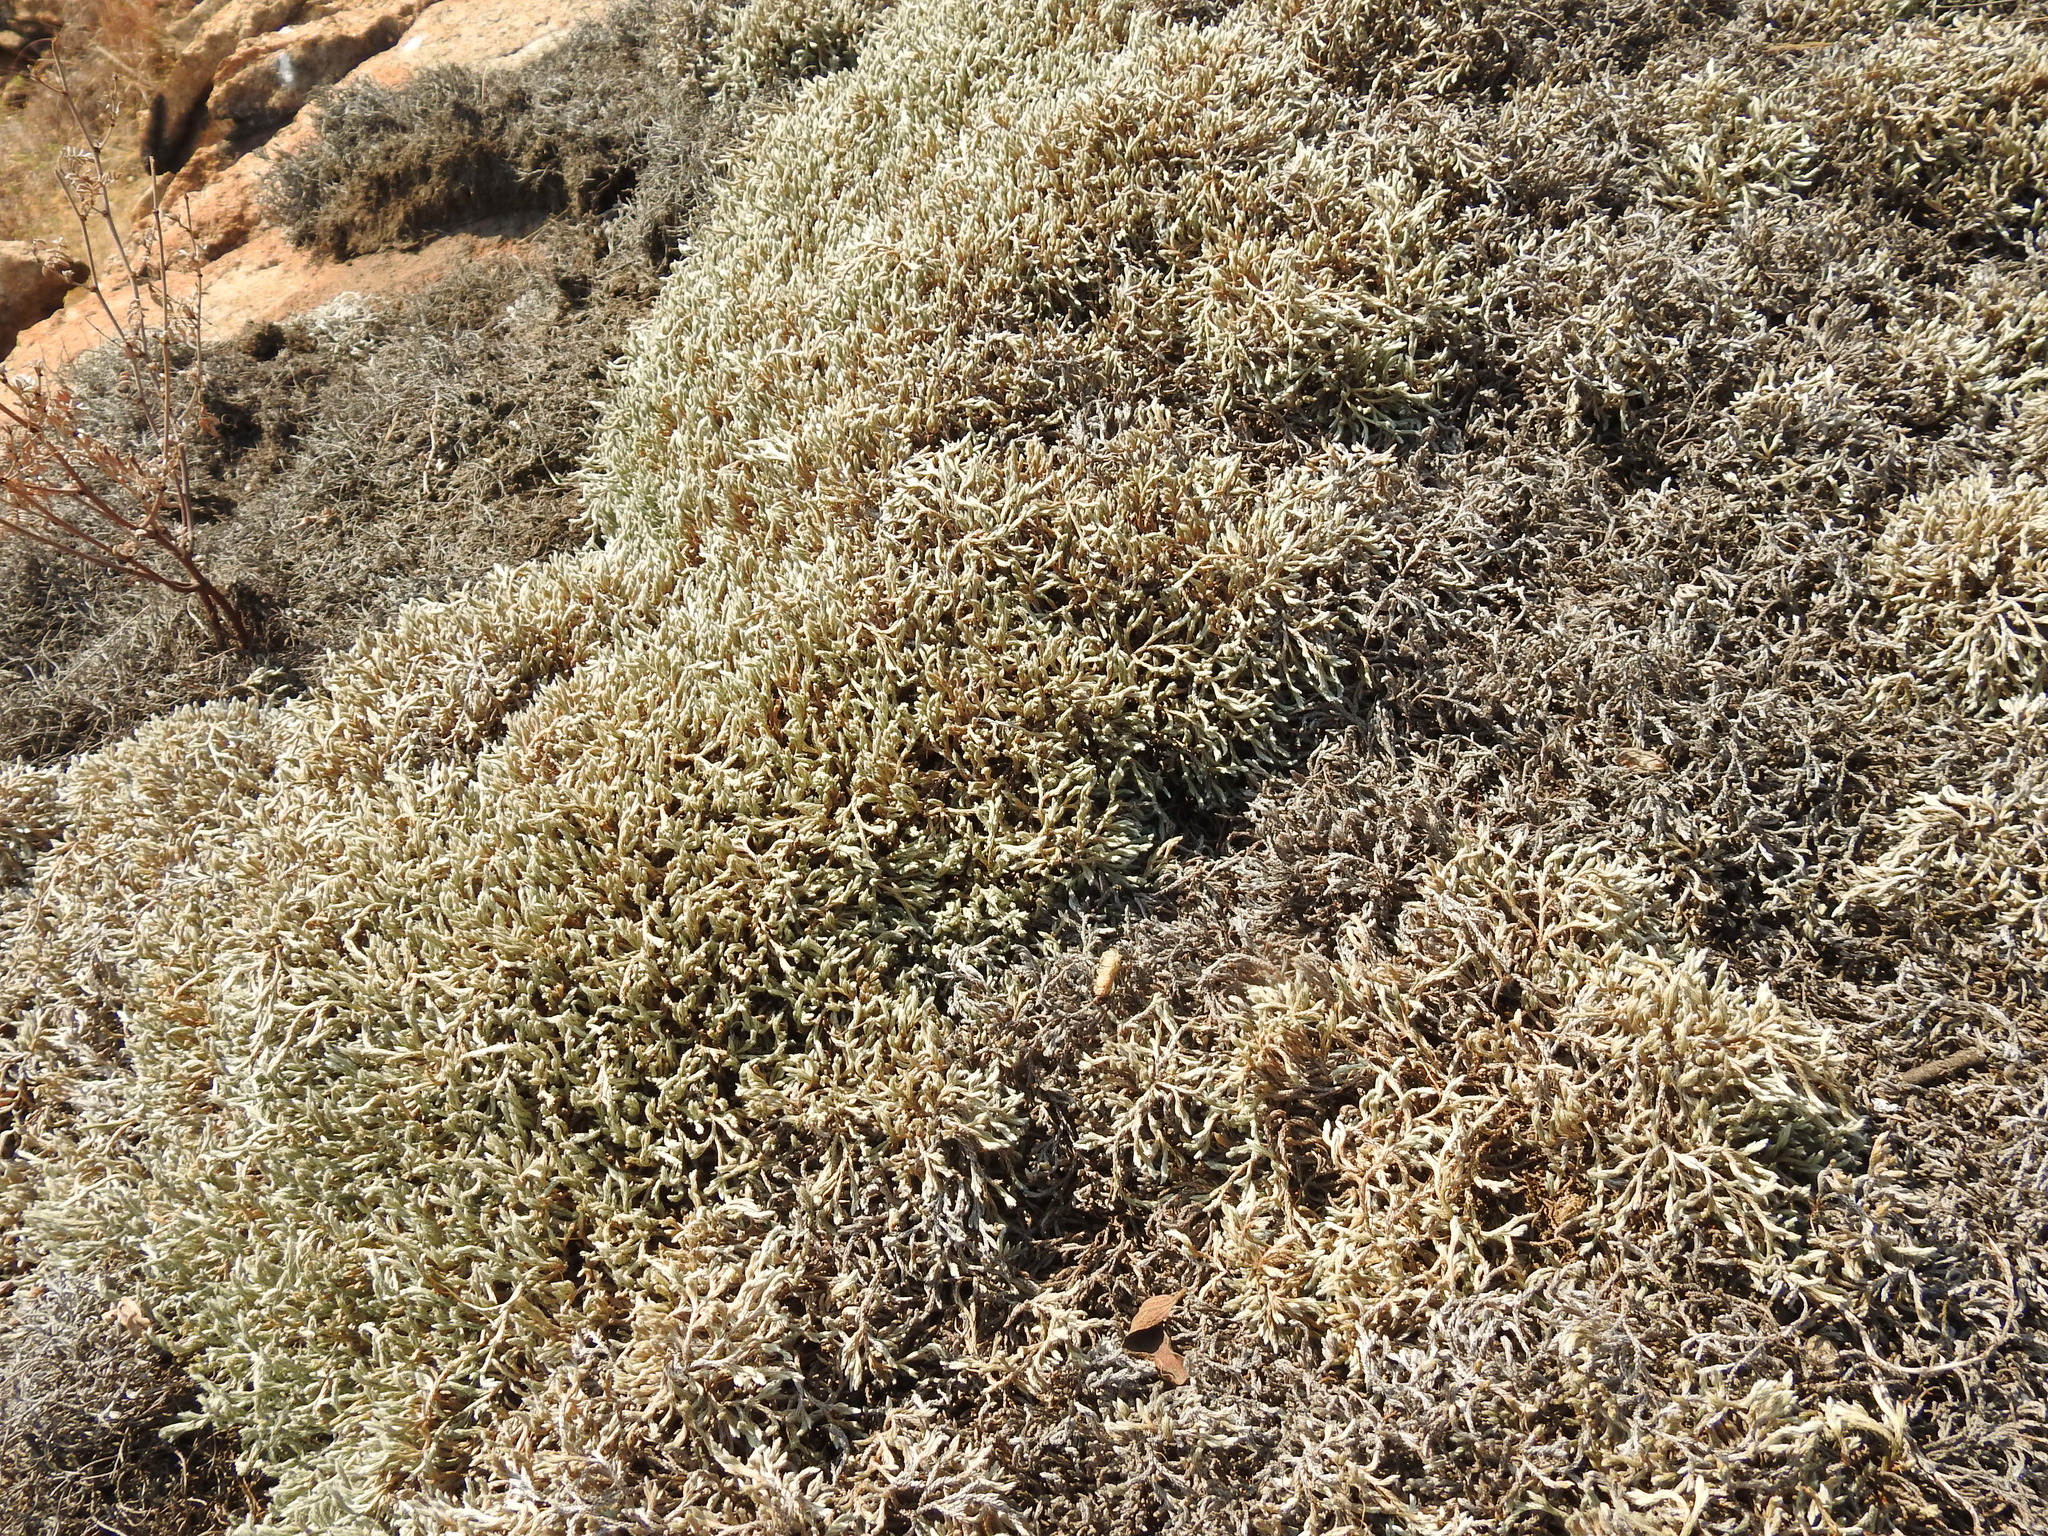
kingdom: Plantae
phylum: Tracheophyta
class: Lycopodiopsida
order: Selaginellales
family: Selaginellaceae
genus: Selaginella
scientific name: Selaginella dregei
